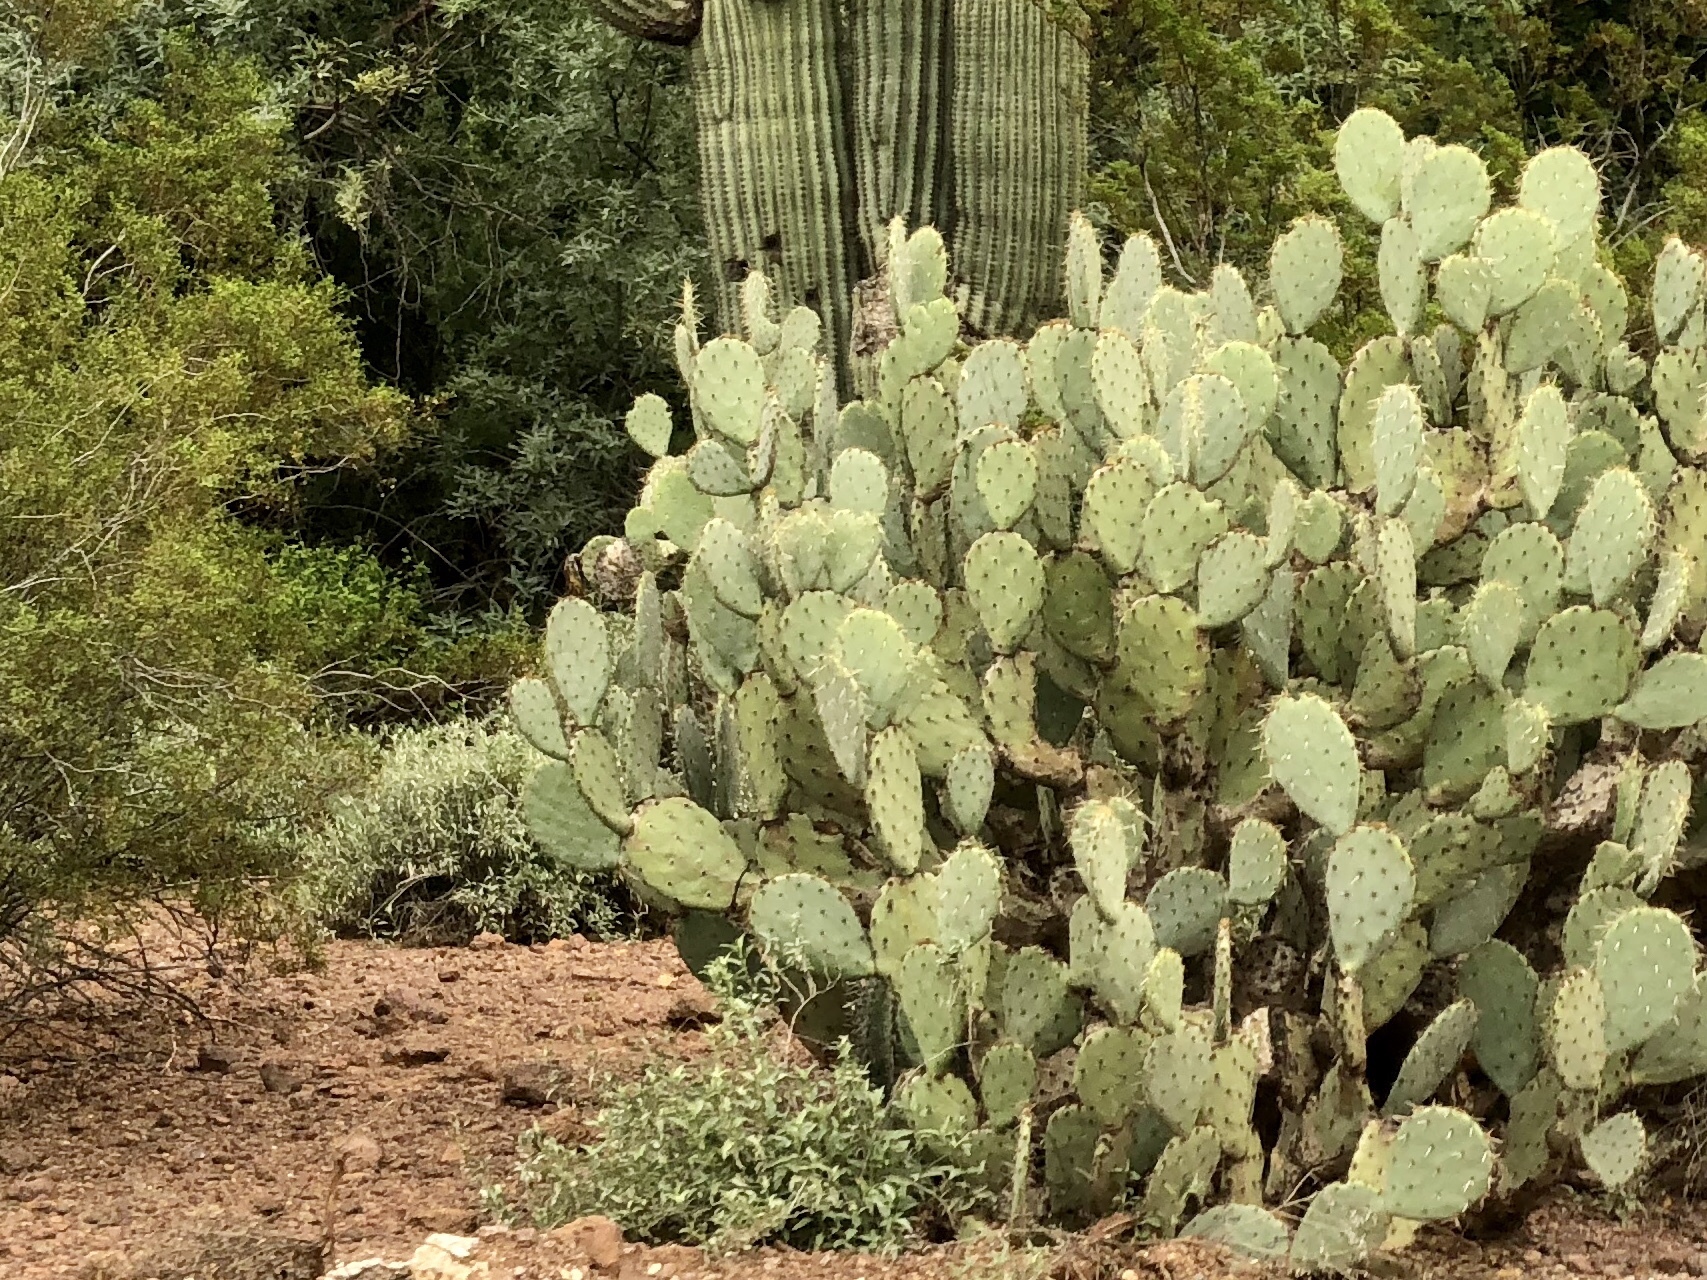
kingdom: Plantae
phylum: Tracheophyta
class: Magnoliopsida
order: Caryophyllales
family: Cactaceae
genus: Opuntia
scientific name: Opuntia engelmannii
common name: Cactus-apple
